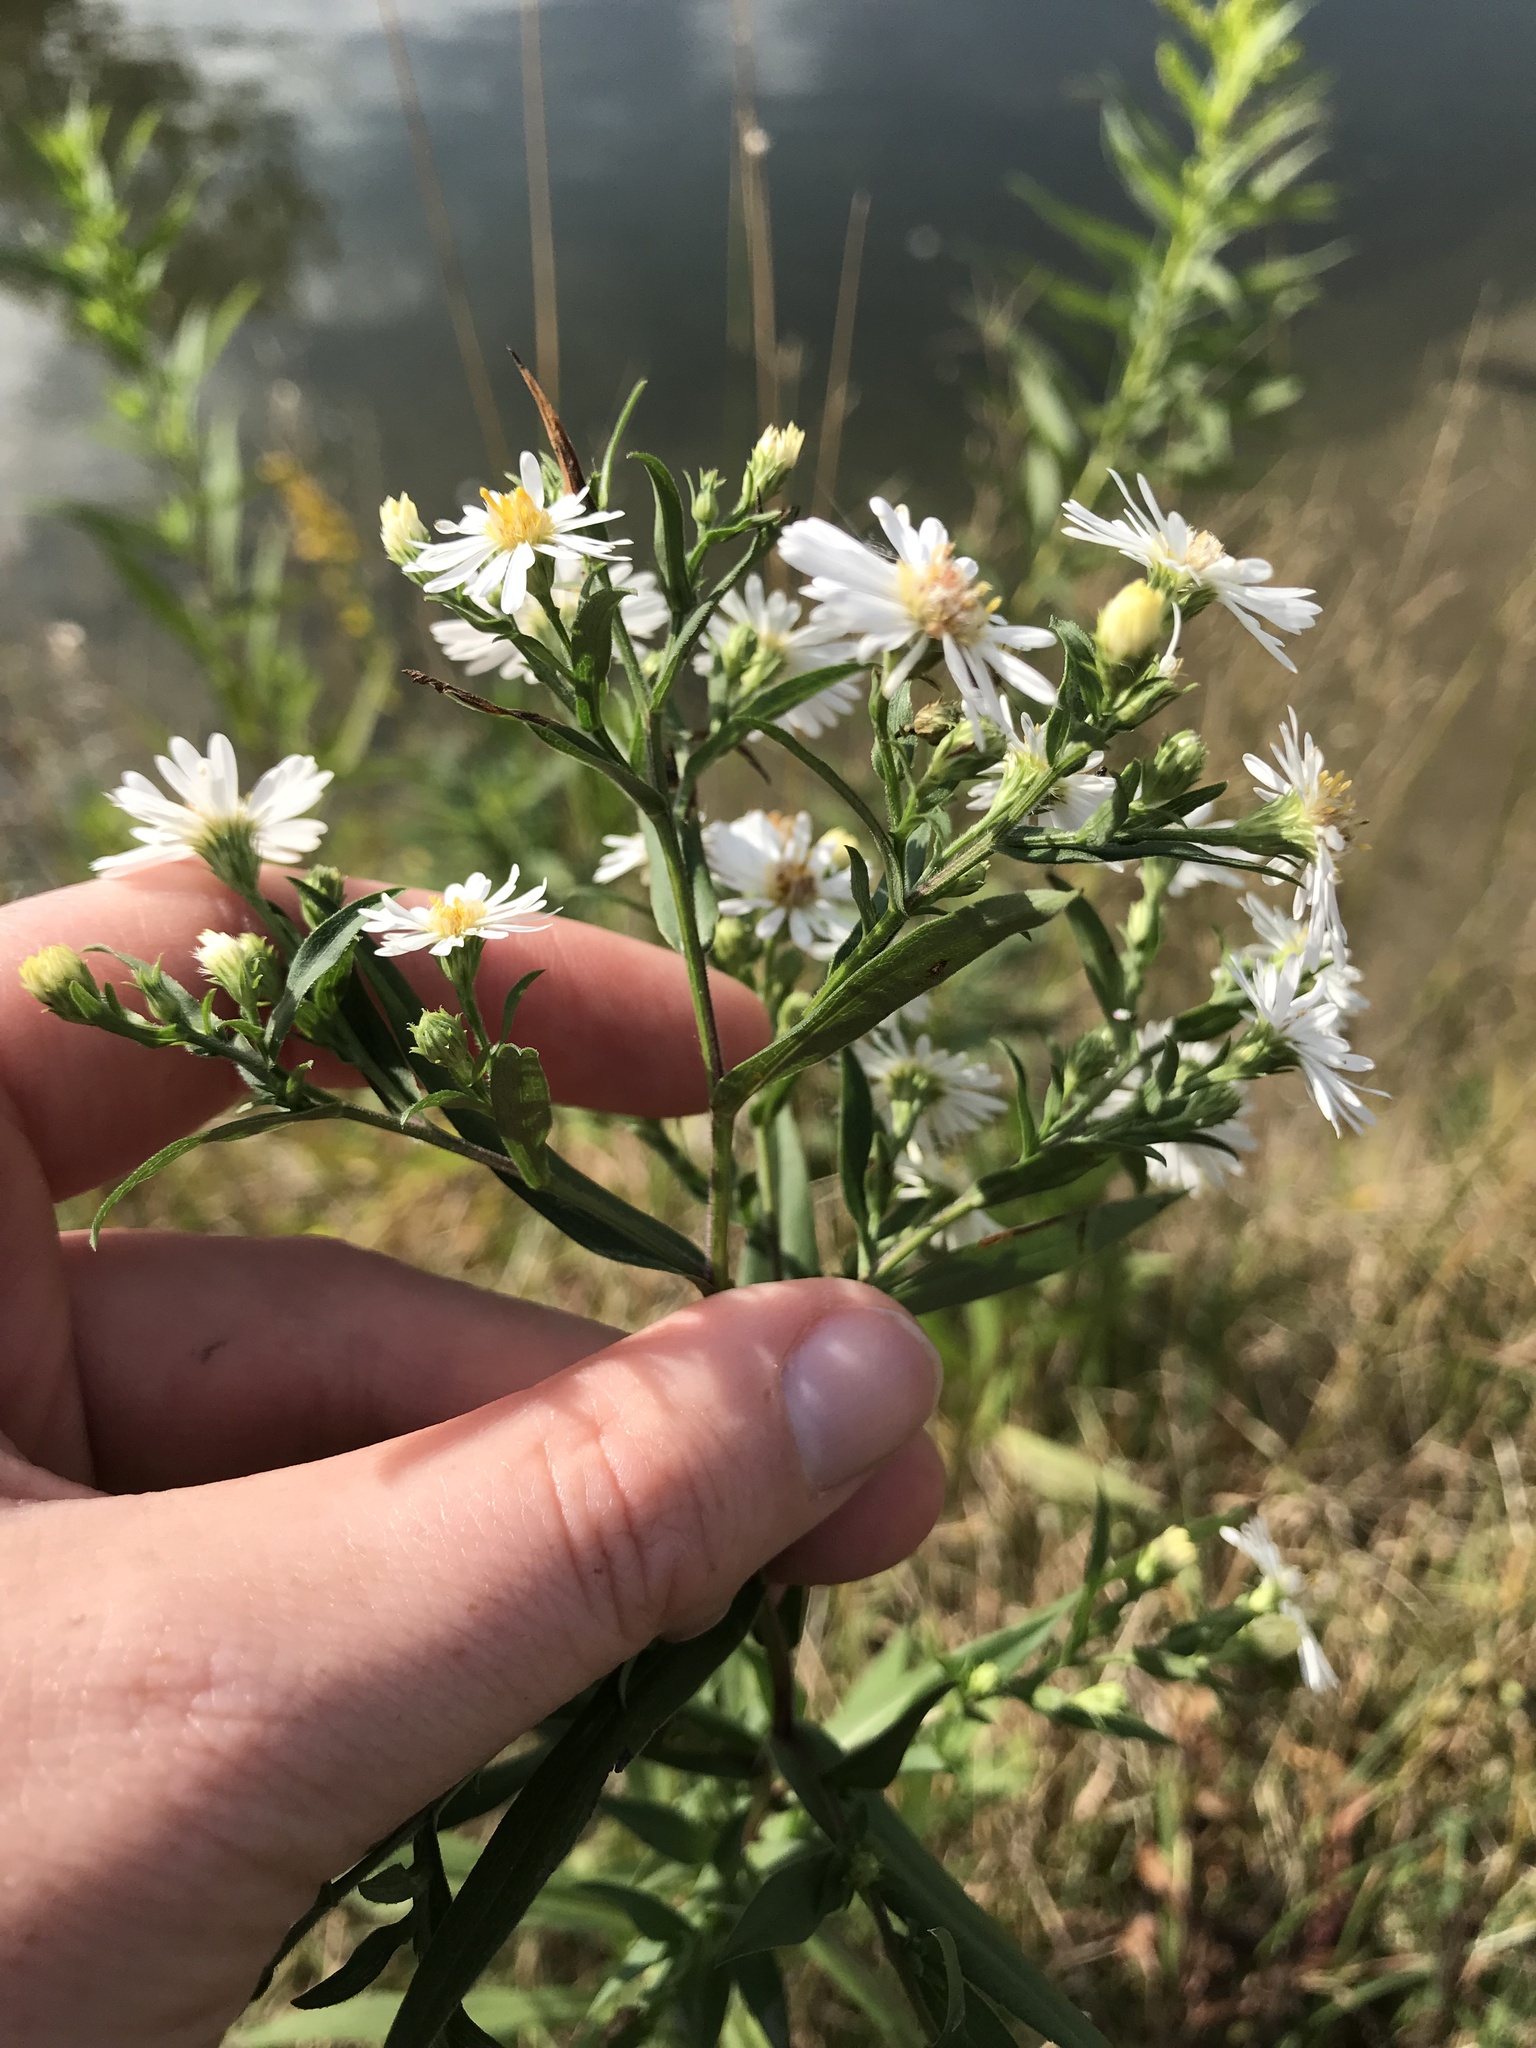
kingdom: Plantae
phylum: Tracheophyta
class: Magnoliopsida
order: Asterales
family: Asteraceae
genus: Symphyotrichum
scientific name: Symphyotrichum lanceolatum
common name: Panicled aster
